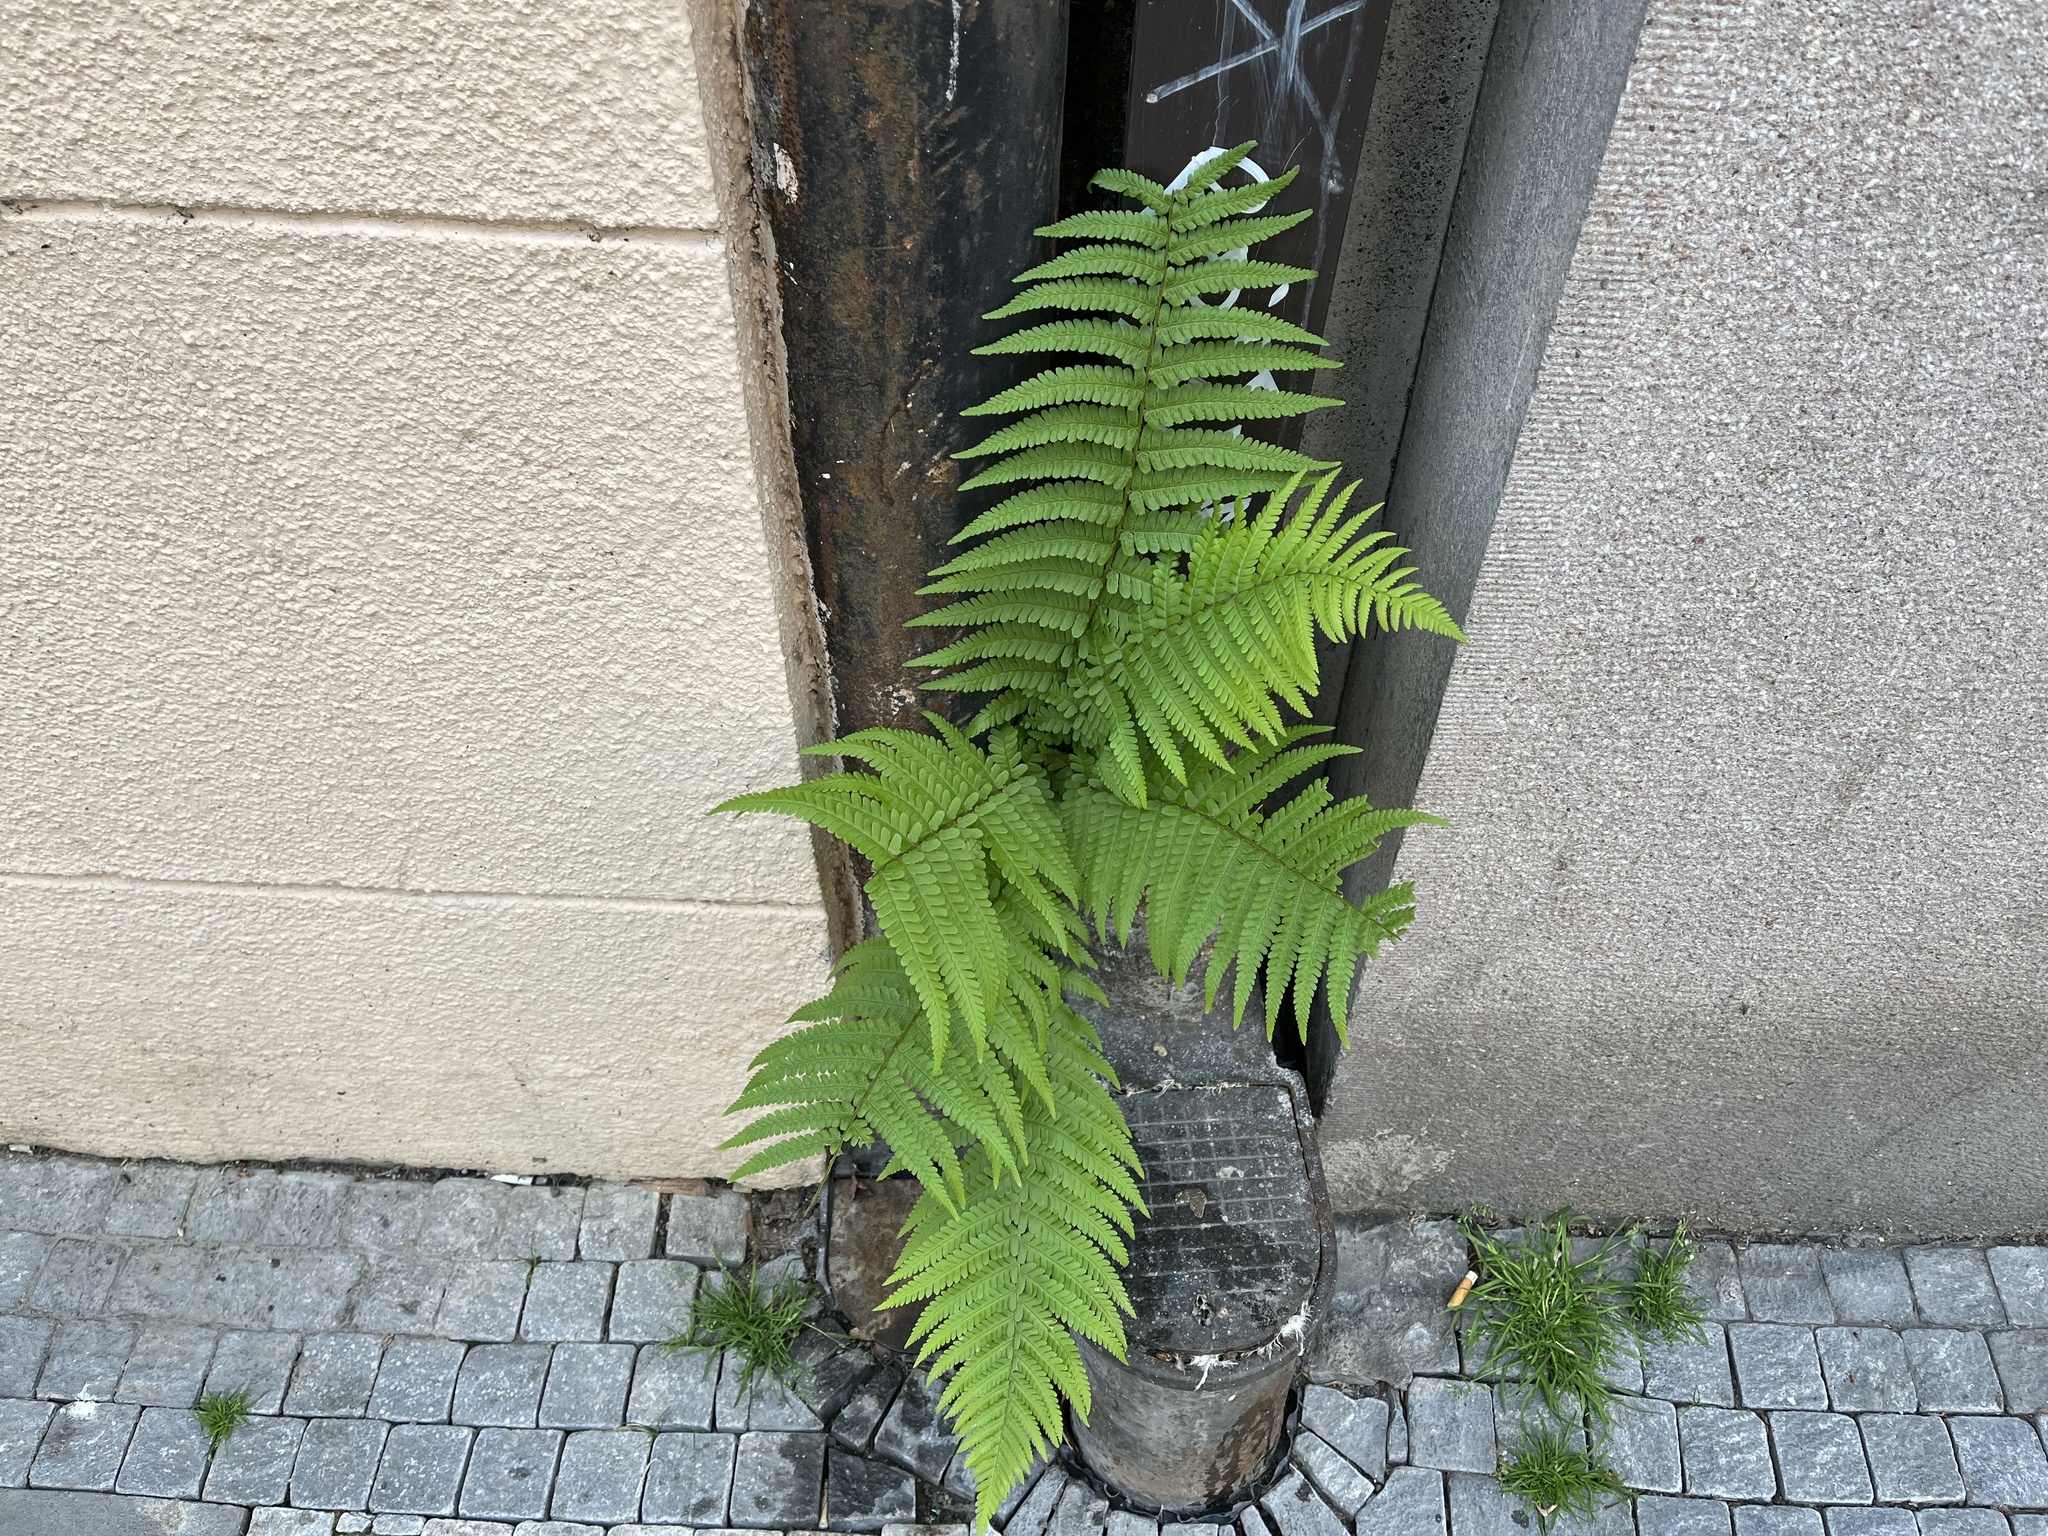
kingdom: Plantae
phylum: Tracheophyta
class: Polypodiopsida
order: Polypodiales
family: Dryopteridaceae
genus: Dryopteris
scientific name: Dryopteris filix-mas
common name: Male fern
